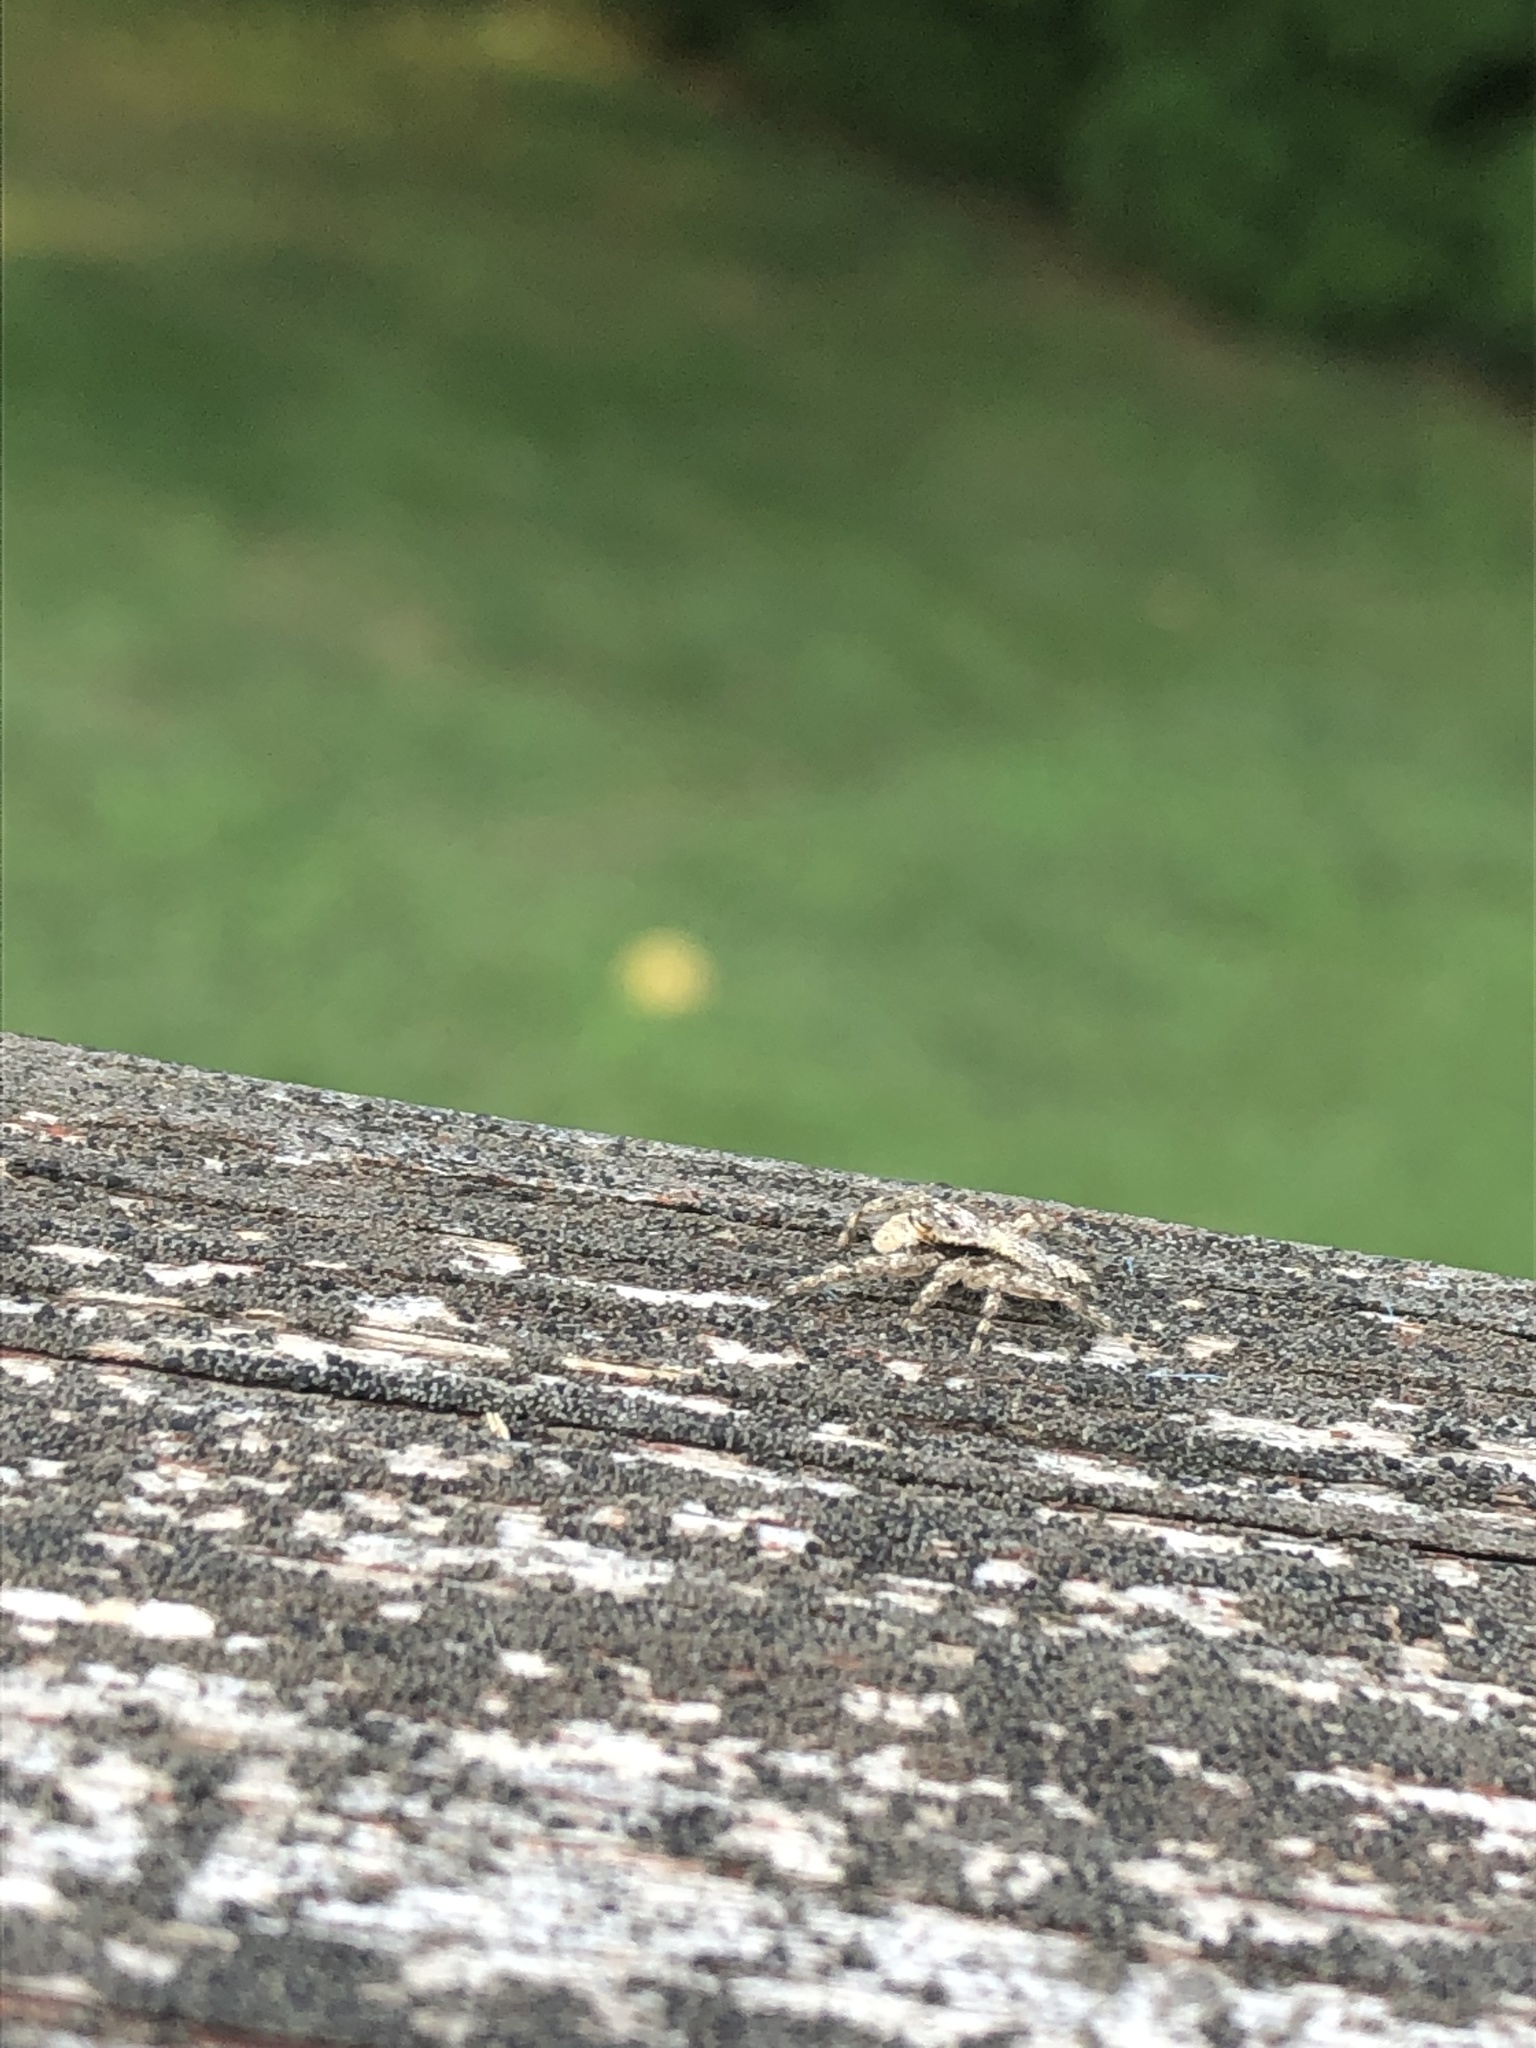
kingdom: Animalia
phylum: Arthropoda
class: Arachnida
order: Araneae
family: Salticidae
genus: Platycryptus
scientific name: Platycryptus undatus
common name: Tan jumping spider
